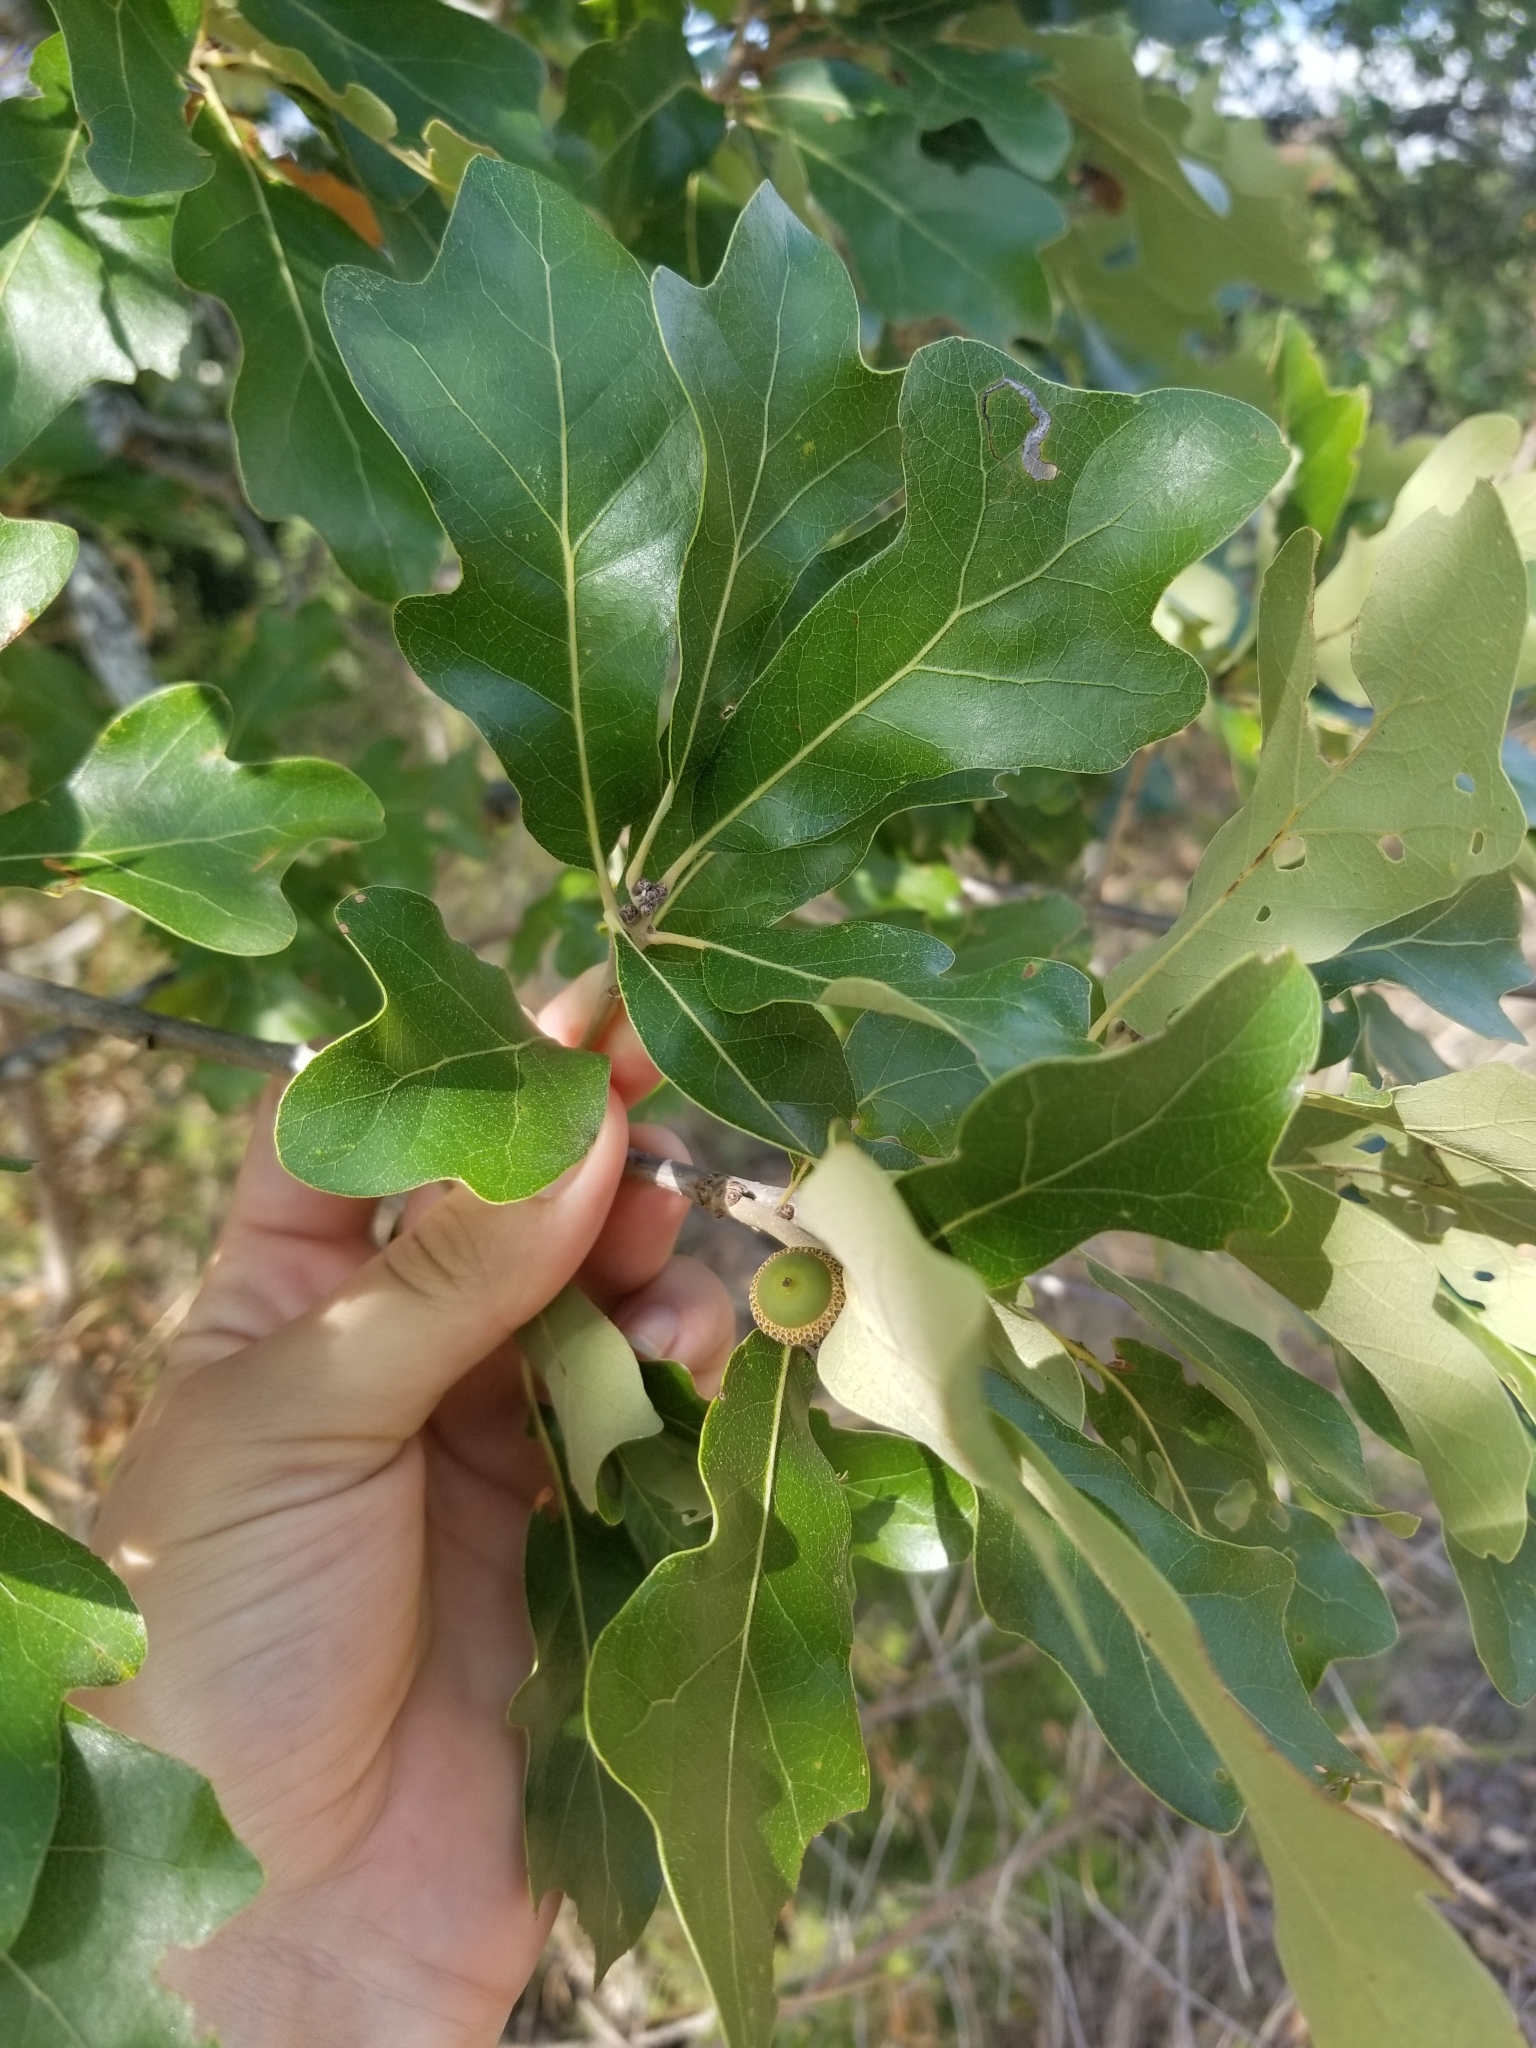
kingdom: Plantae
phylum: Tracheophyta
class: Magnoliopsida
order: Fagales
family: Fagaceae
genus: Quercus
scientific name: Quercus stellata
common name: Post oak
